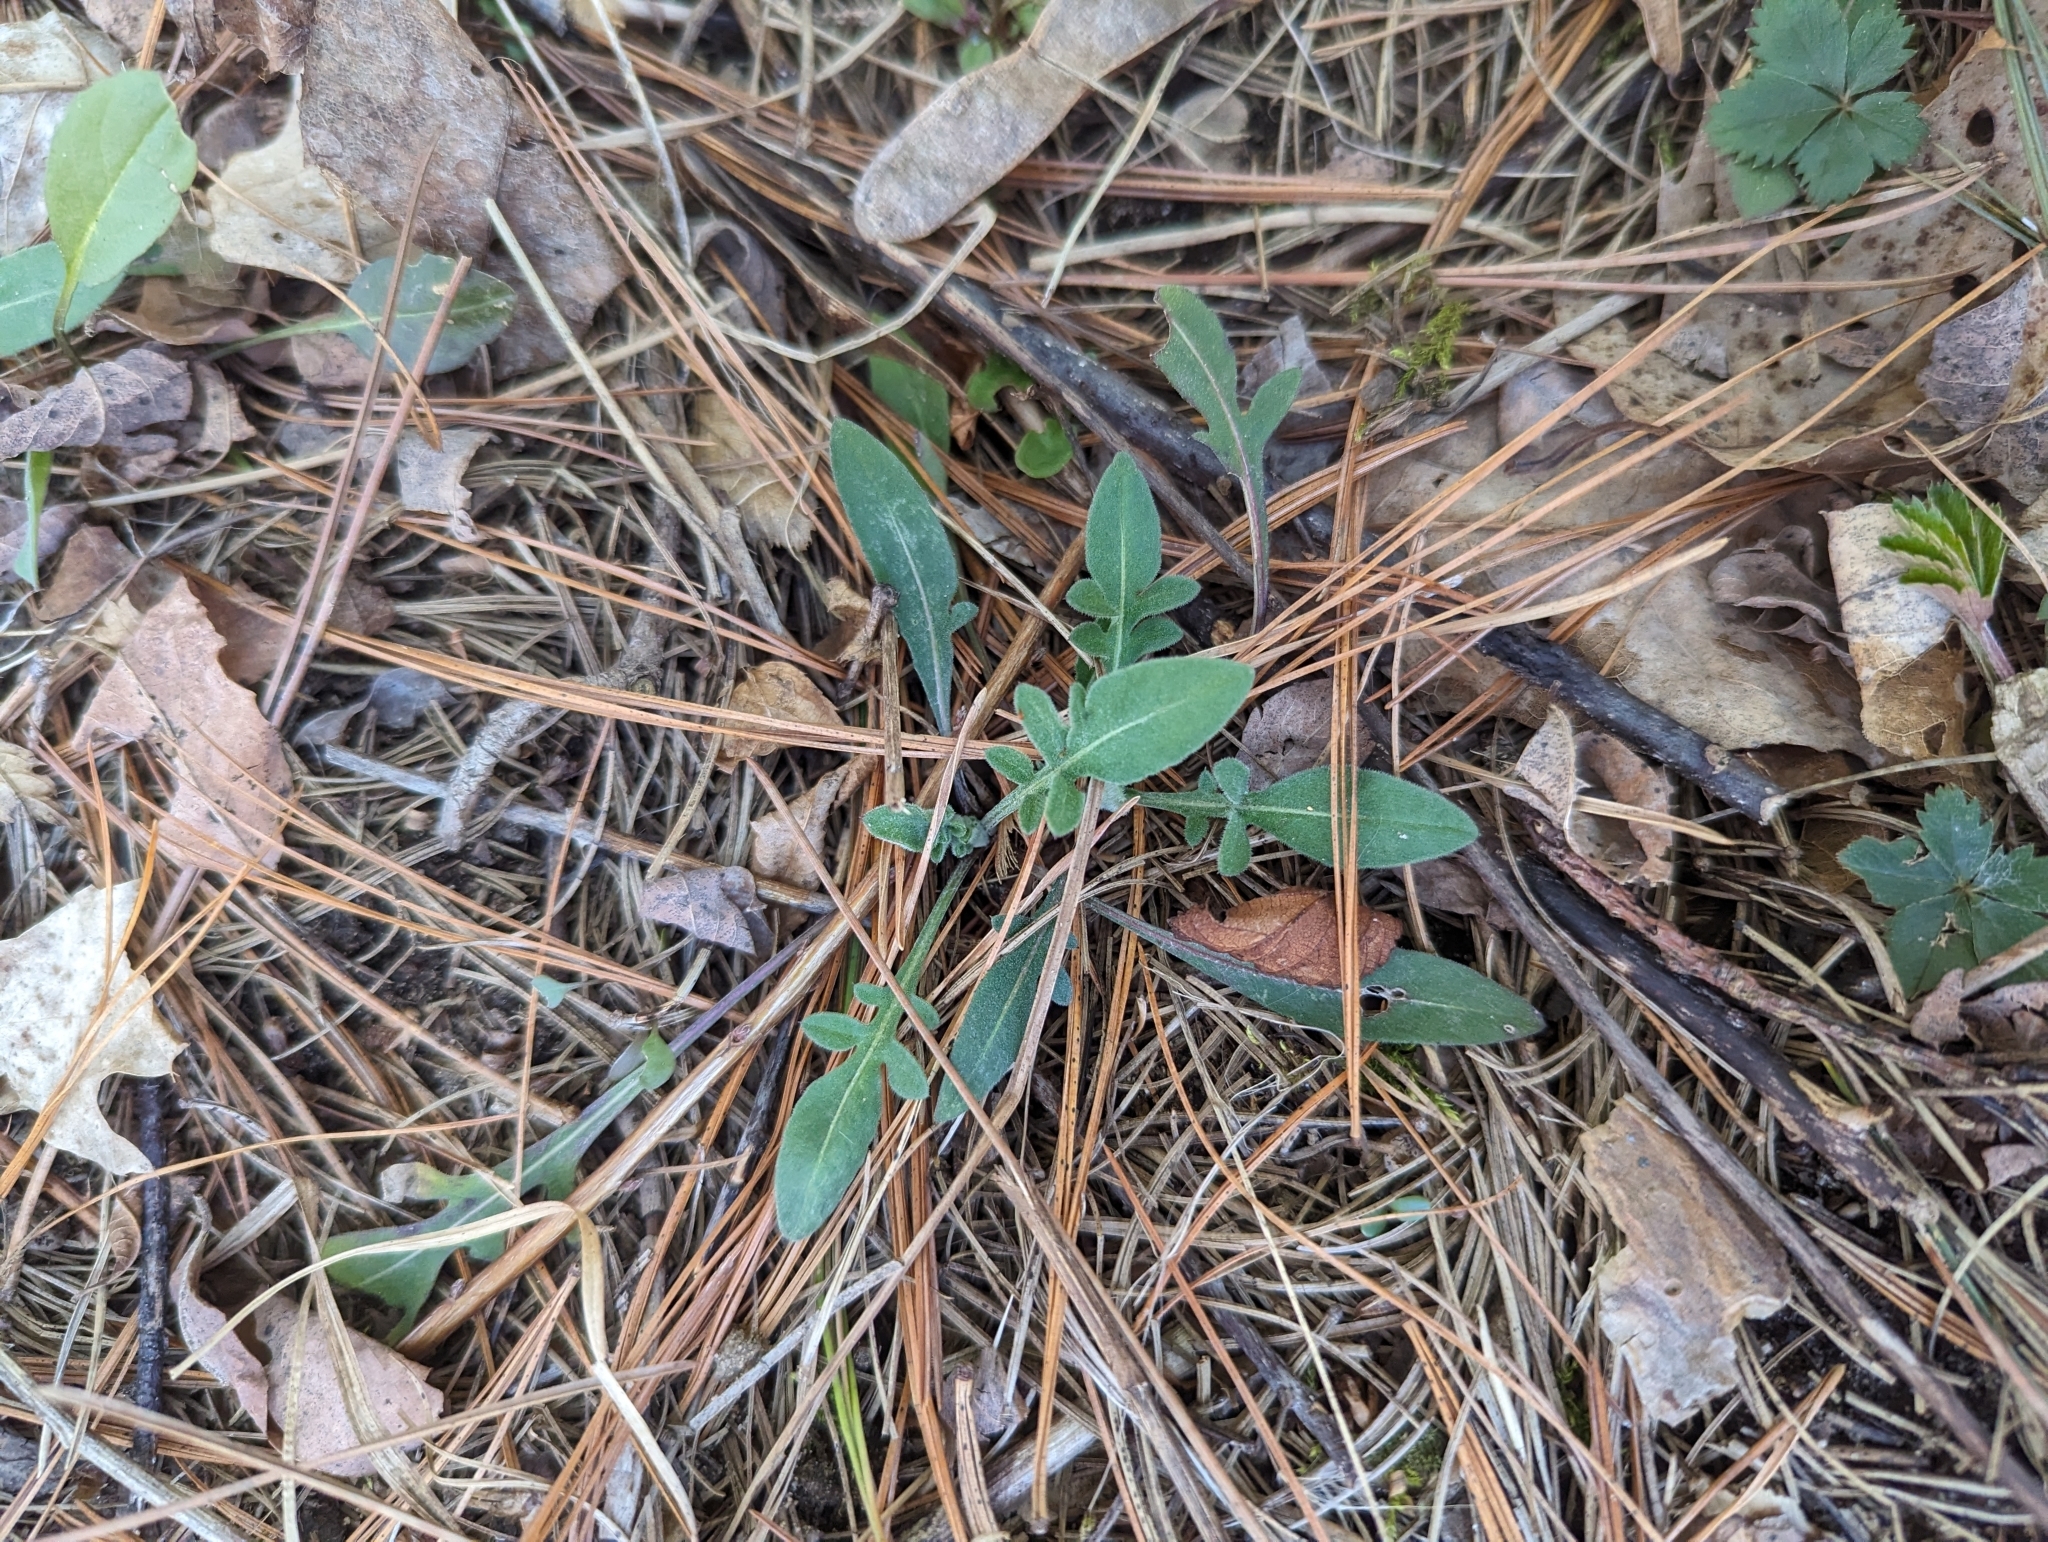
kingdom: Plantae
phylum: Tracheophyta
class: Magnoliopsida
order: Asterales
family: Asteraceae
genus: Centaurea
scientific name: Centaurea stoebe
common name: Spotted knapweed
